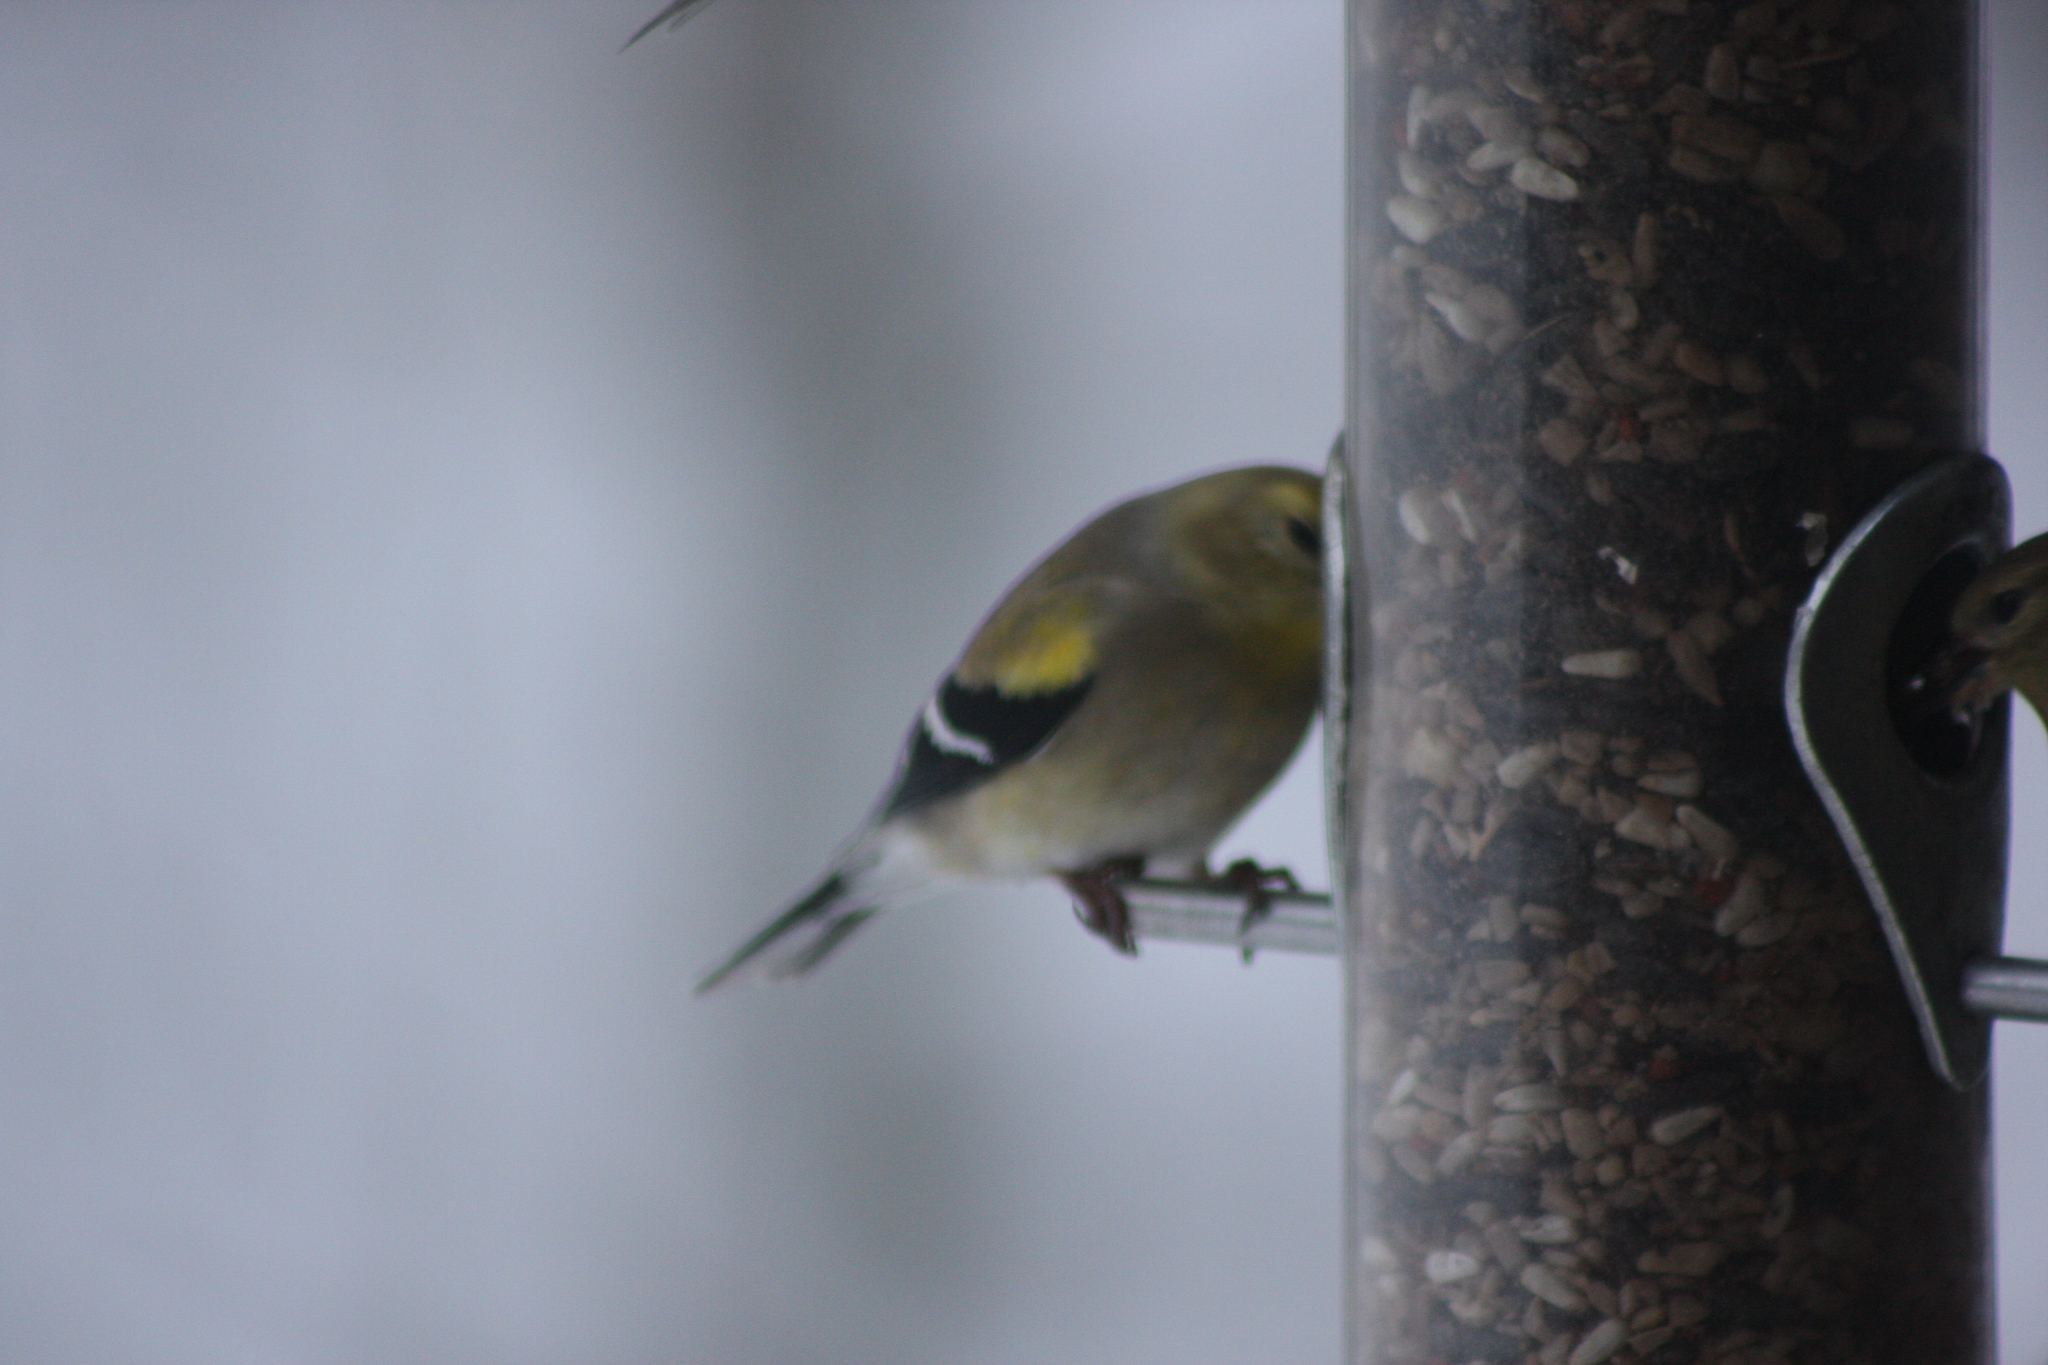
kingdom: Animalia
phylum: Chordata
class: Aves
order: Passeriformes
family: Fringillidae
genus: Spinus
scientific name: Spinus tristis
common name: American goldfinch
